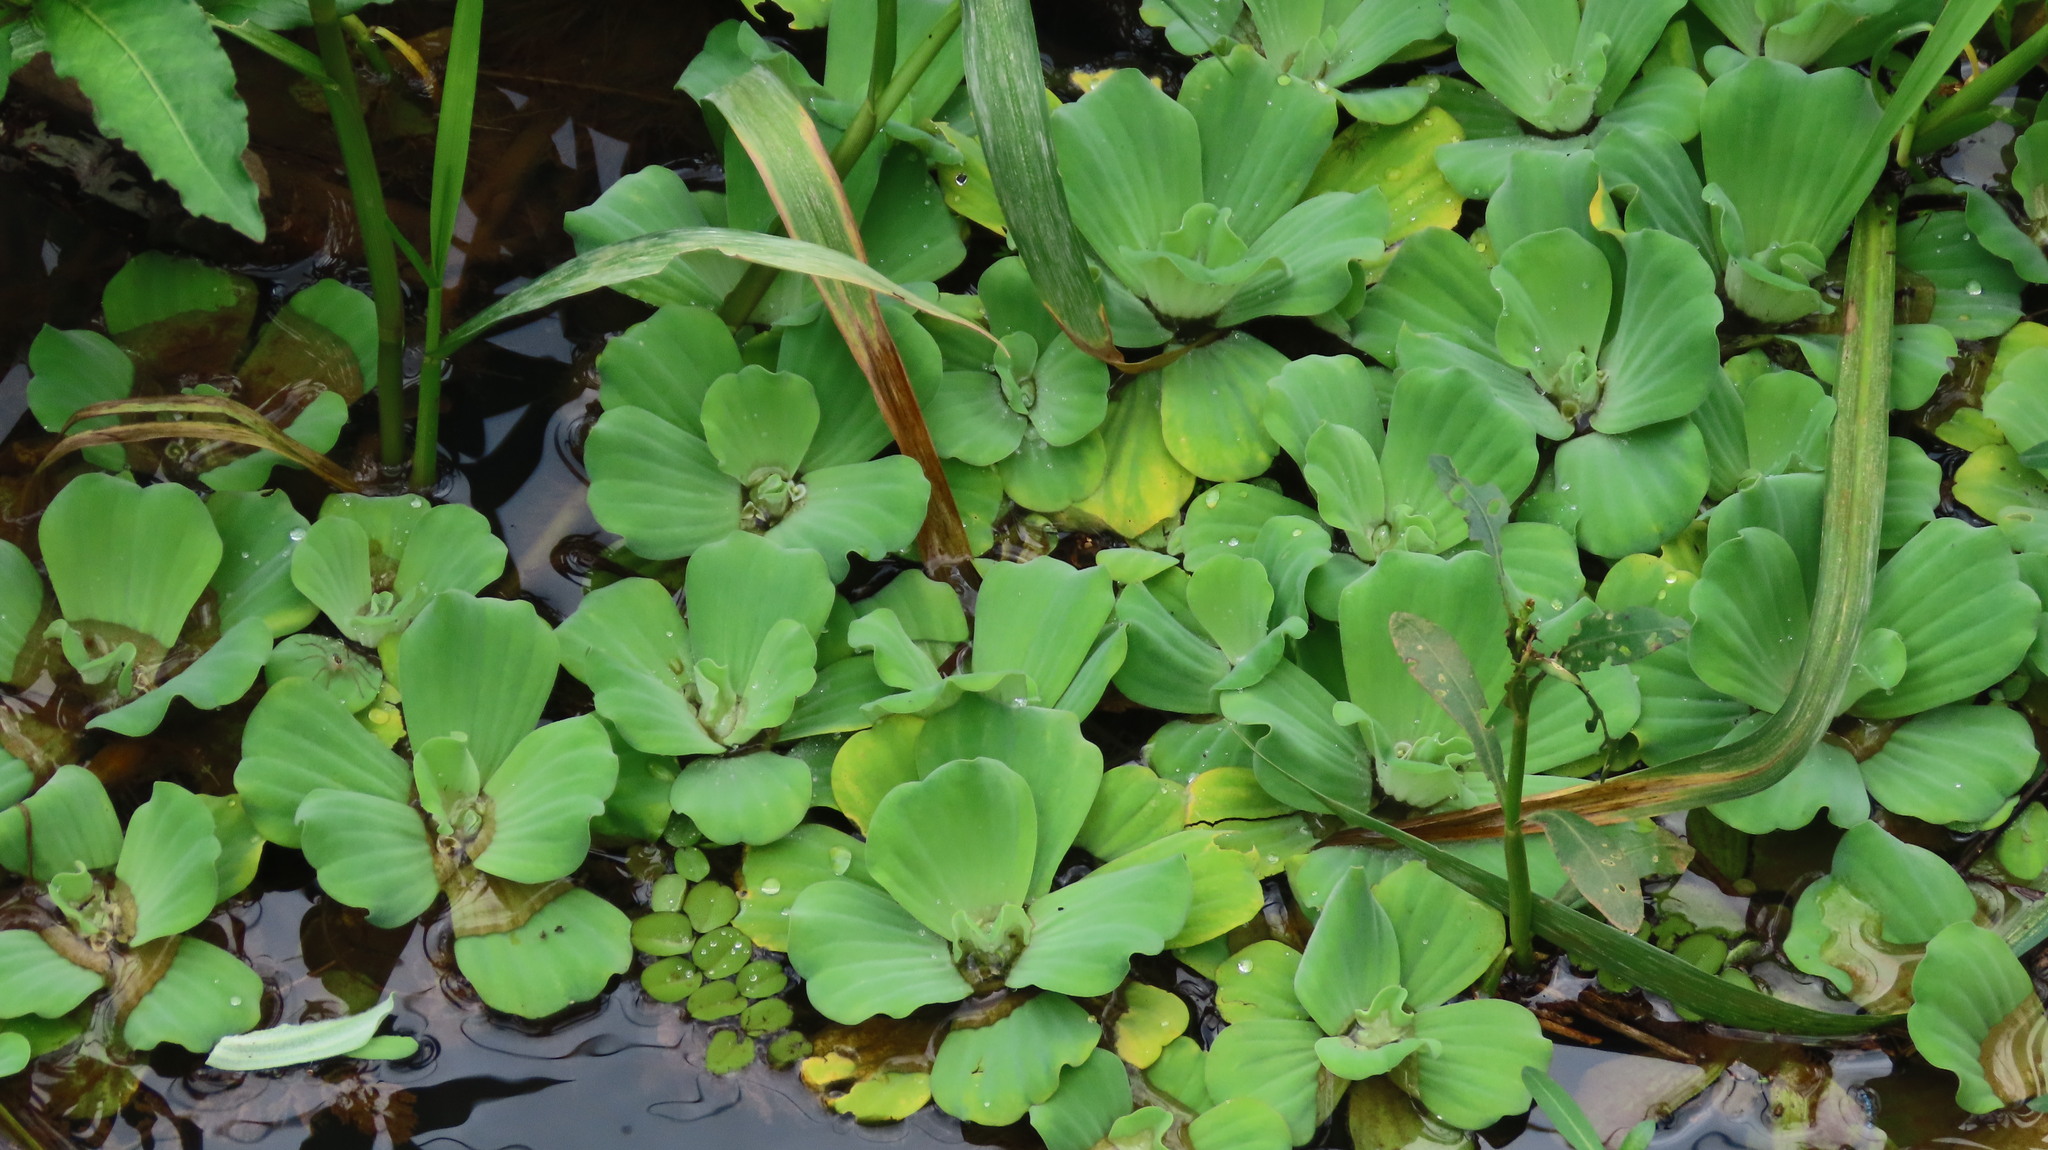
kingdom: Plantae
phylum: Tracheophyta
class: Liliopsida
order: Alismatales
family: Araceae
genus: Pistia
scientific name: Pistia stratiotes
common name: Water lettuce
